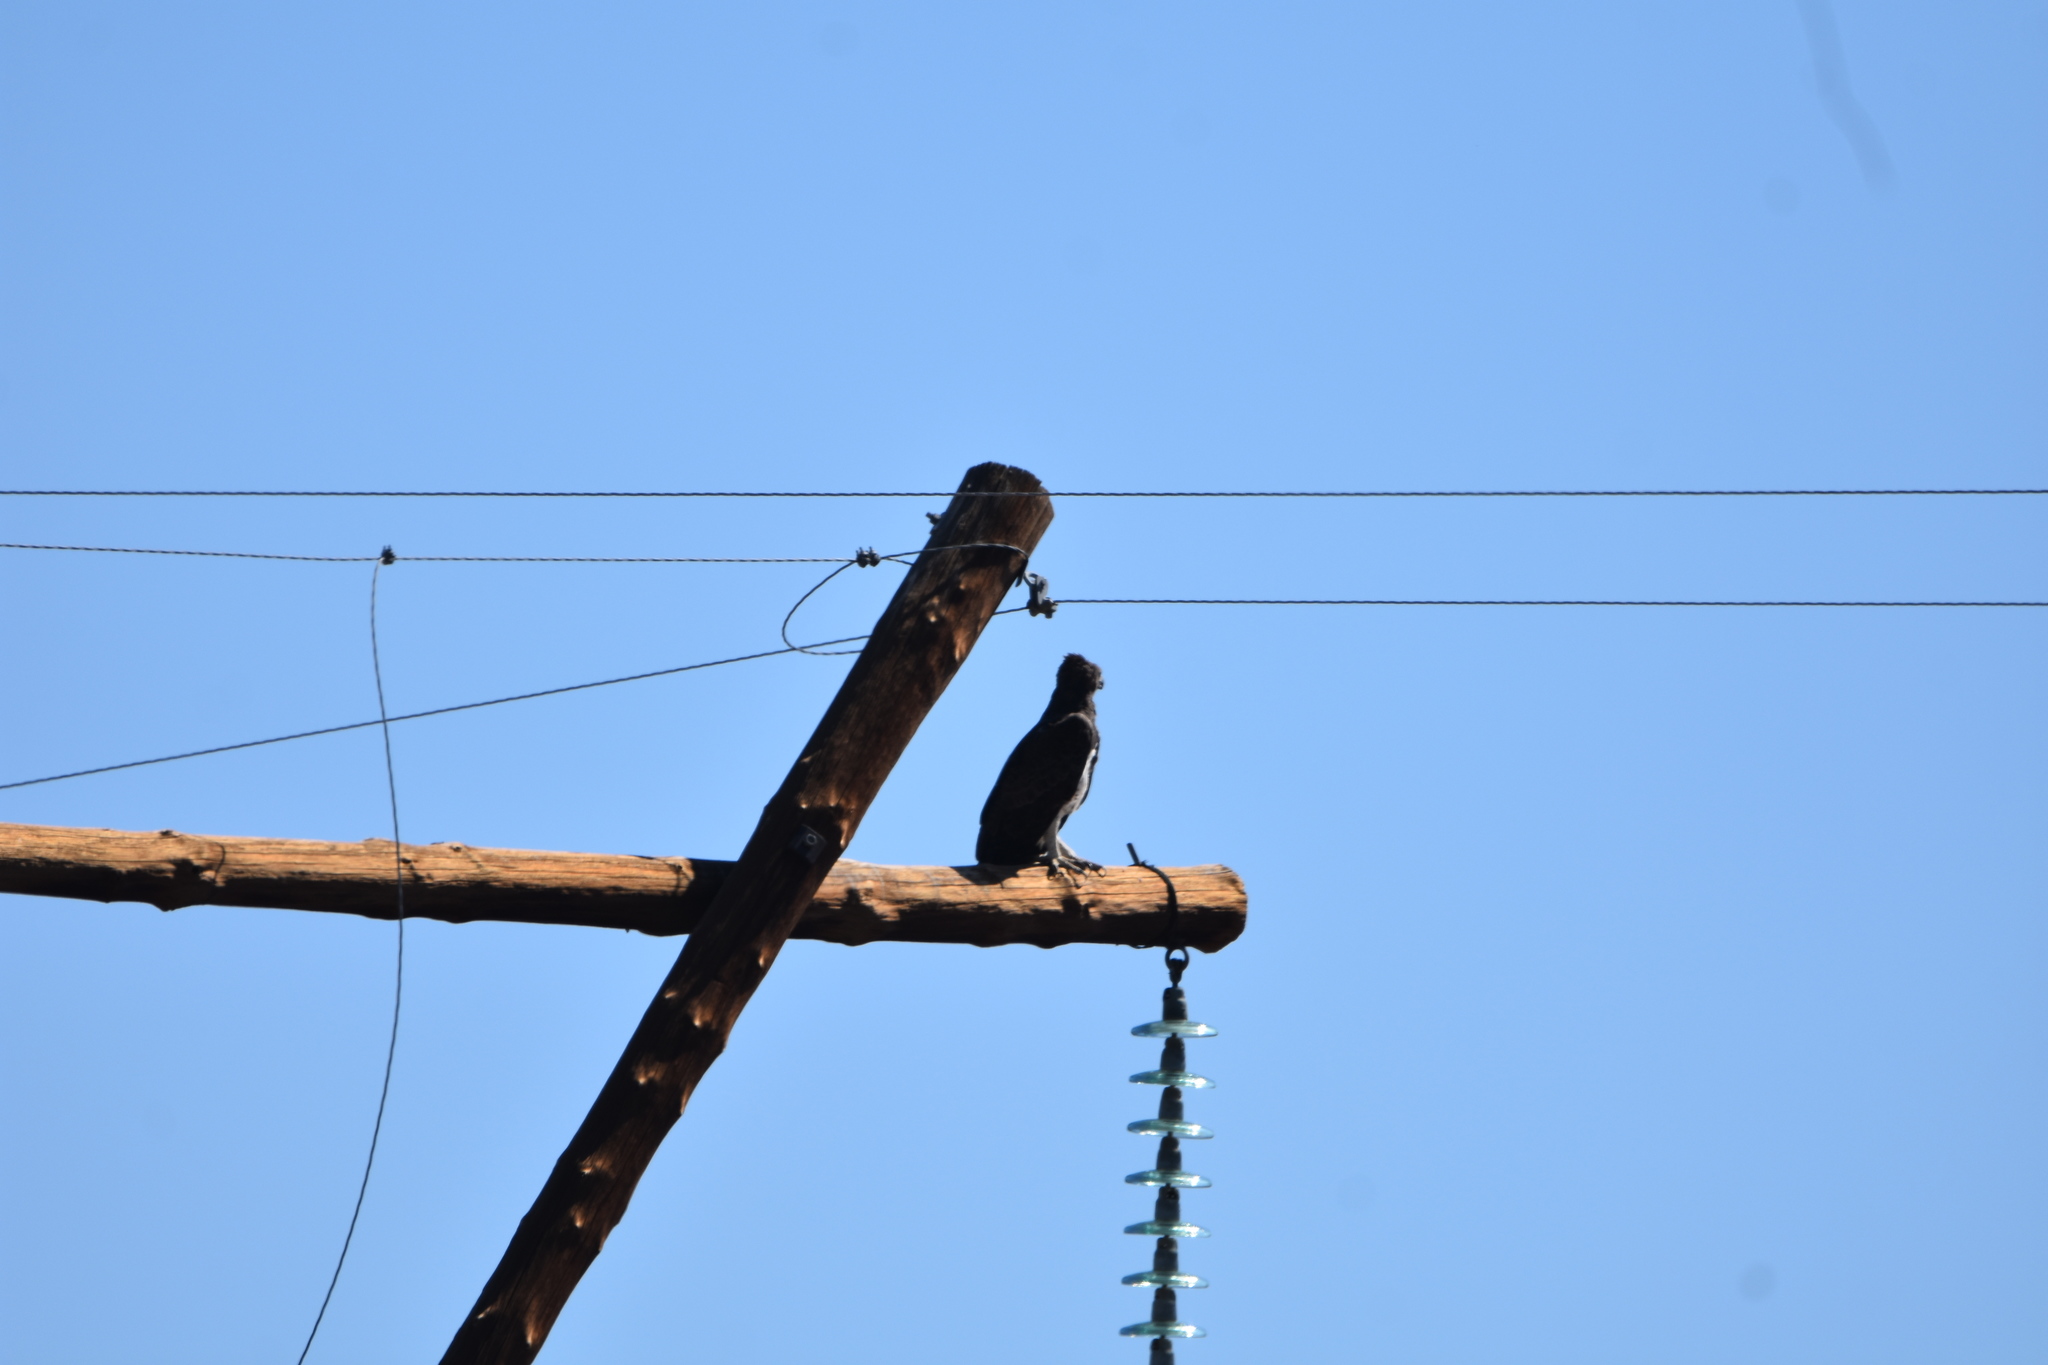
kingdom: Animalia
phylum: Chordata
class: Aves
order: Accipitriformes
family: Accipitridae
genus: Polemaetus
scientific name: Polemaetus bellicosus
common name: Martial eagle
